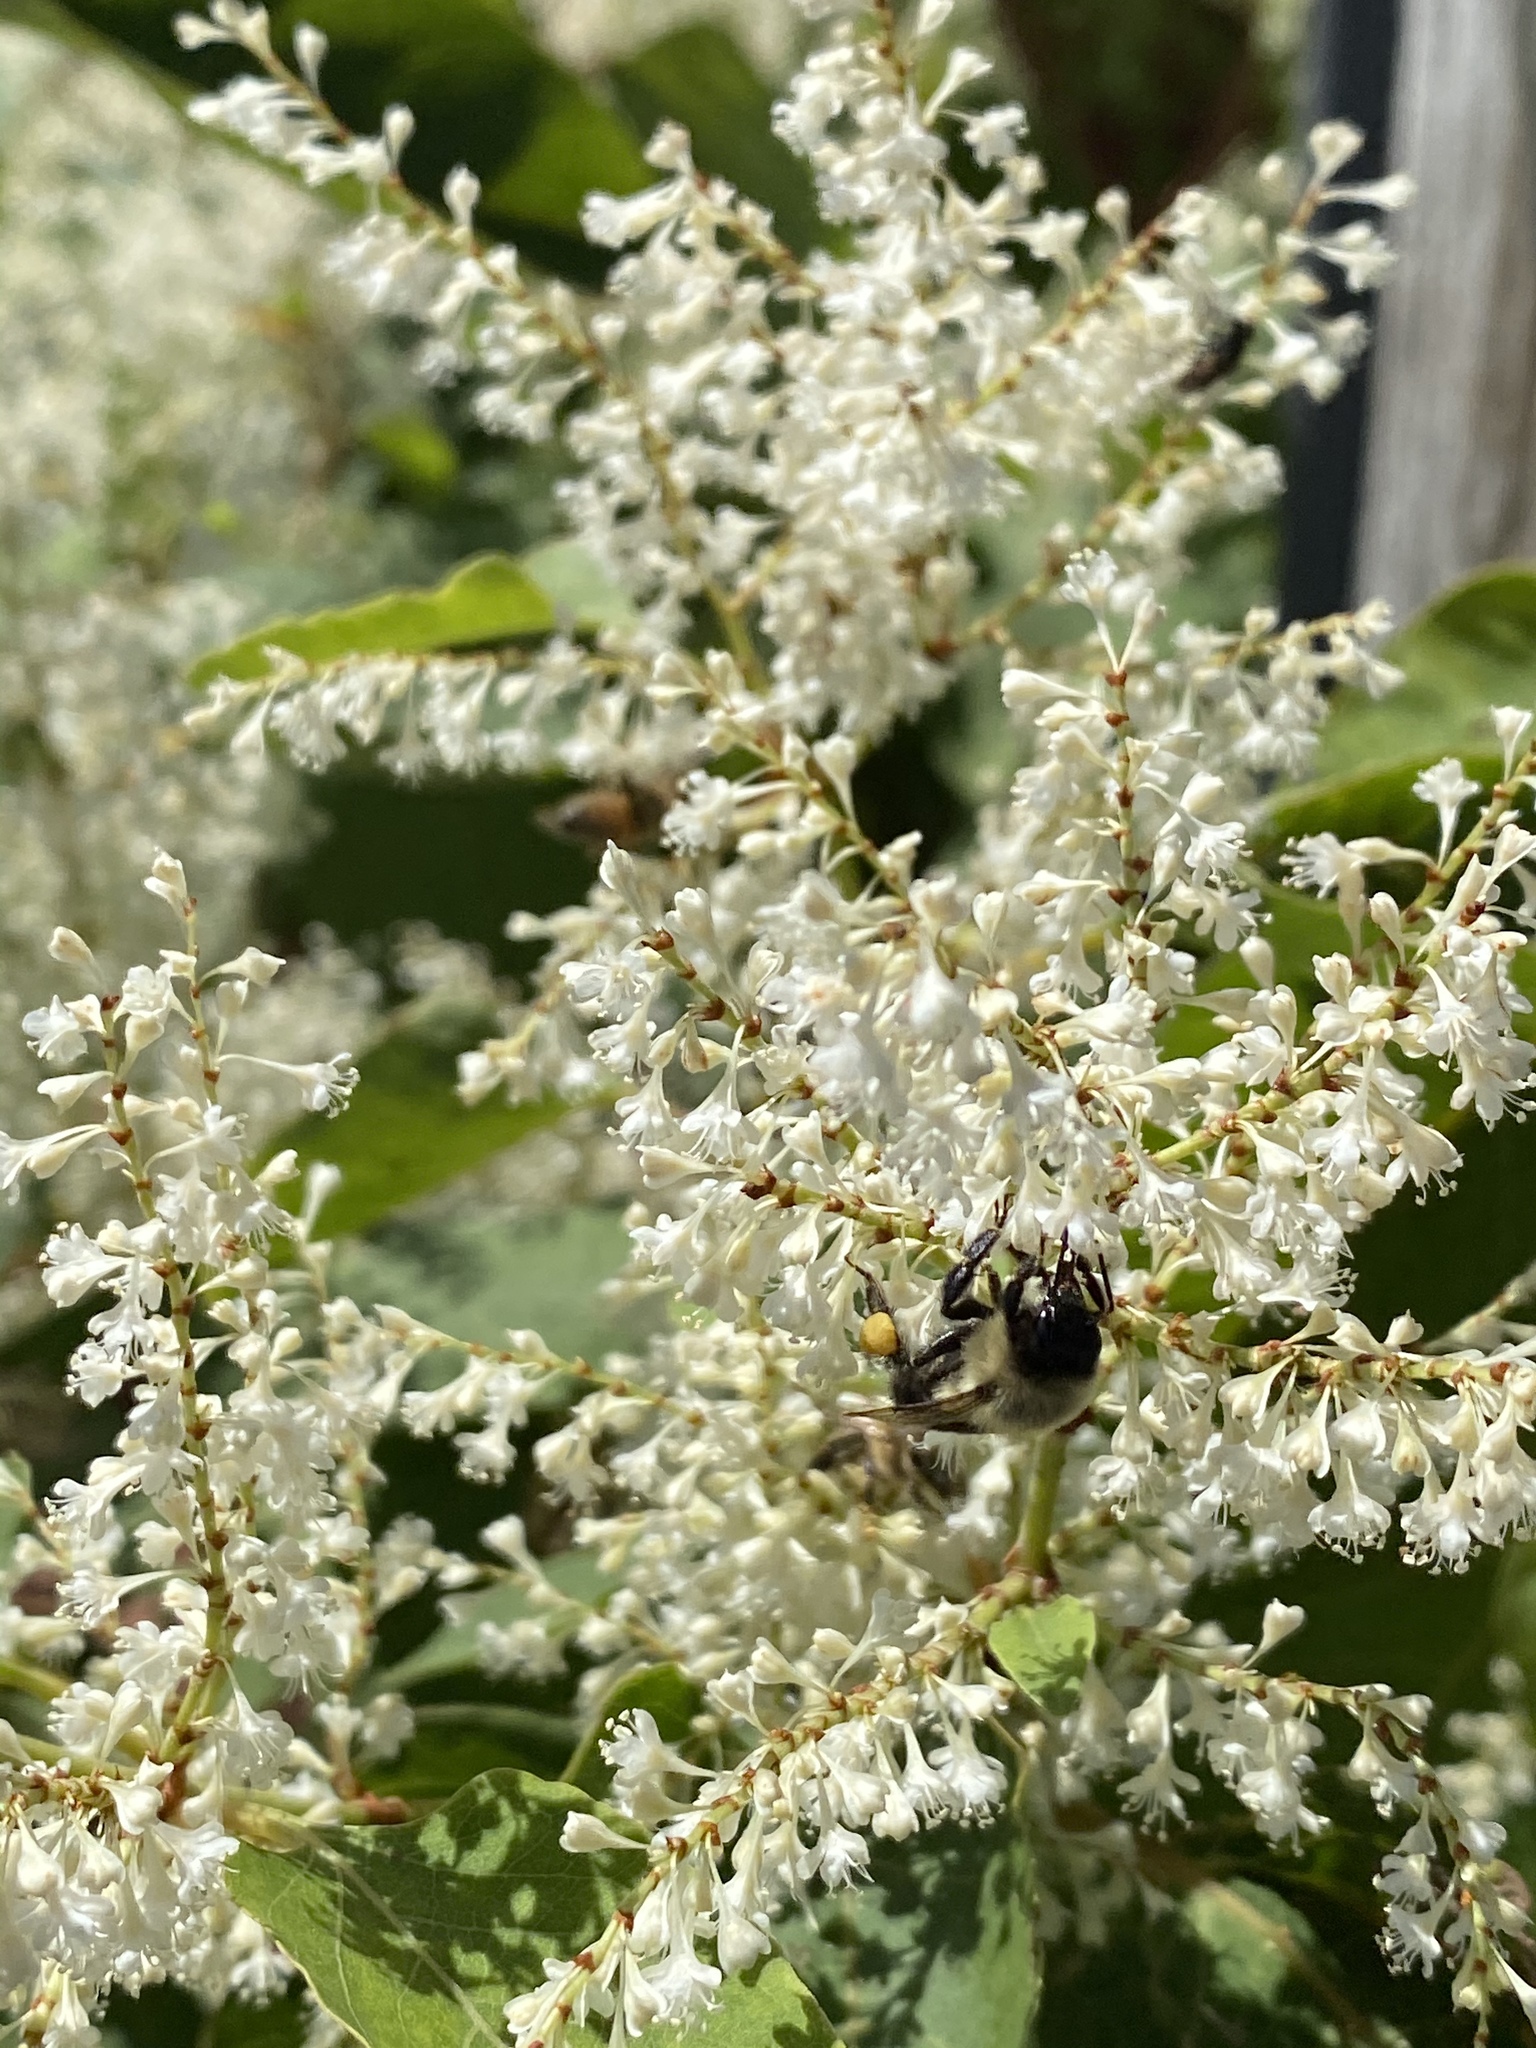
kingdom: Animalia
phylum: Arthropoda
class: Insecta
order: Hymenoptera
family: Apidae
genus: Bombus
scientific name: Bombus impatiens
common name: Common eastern bumble bee
